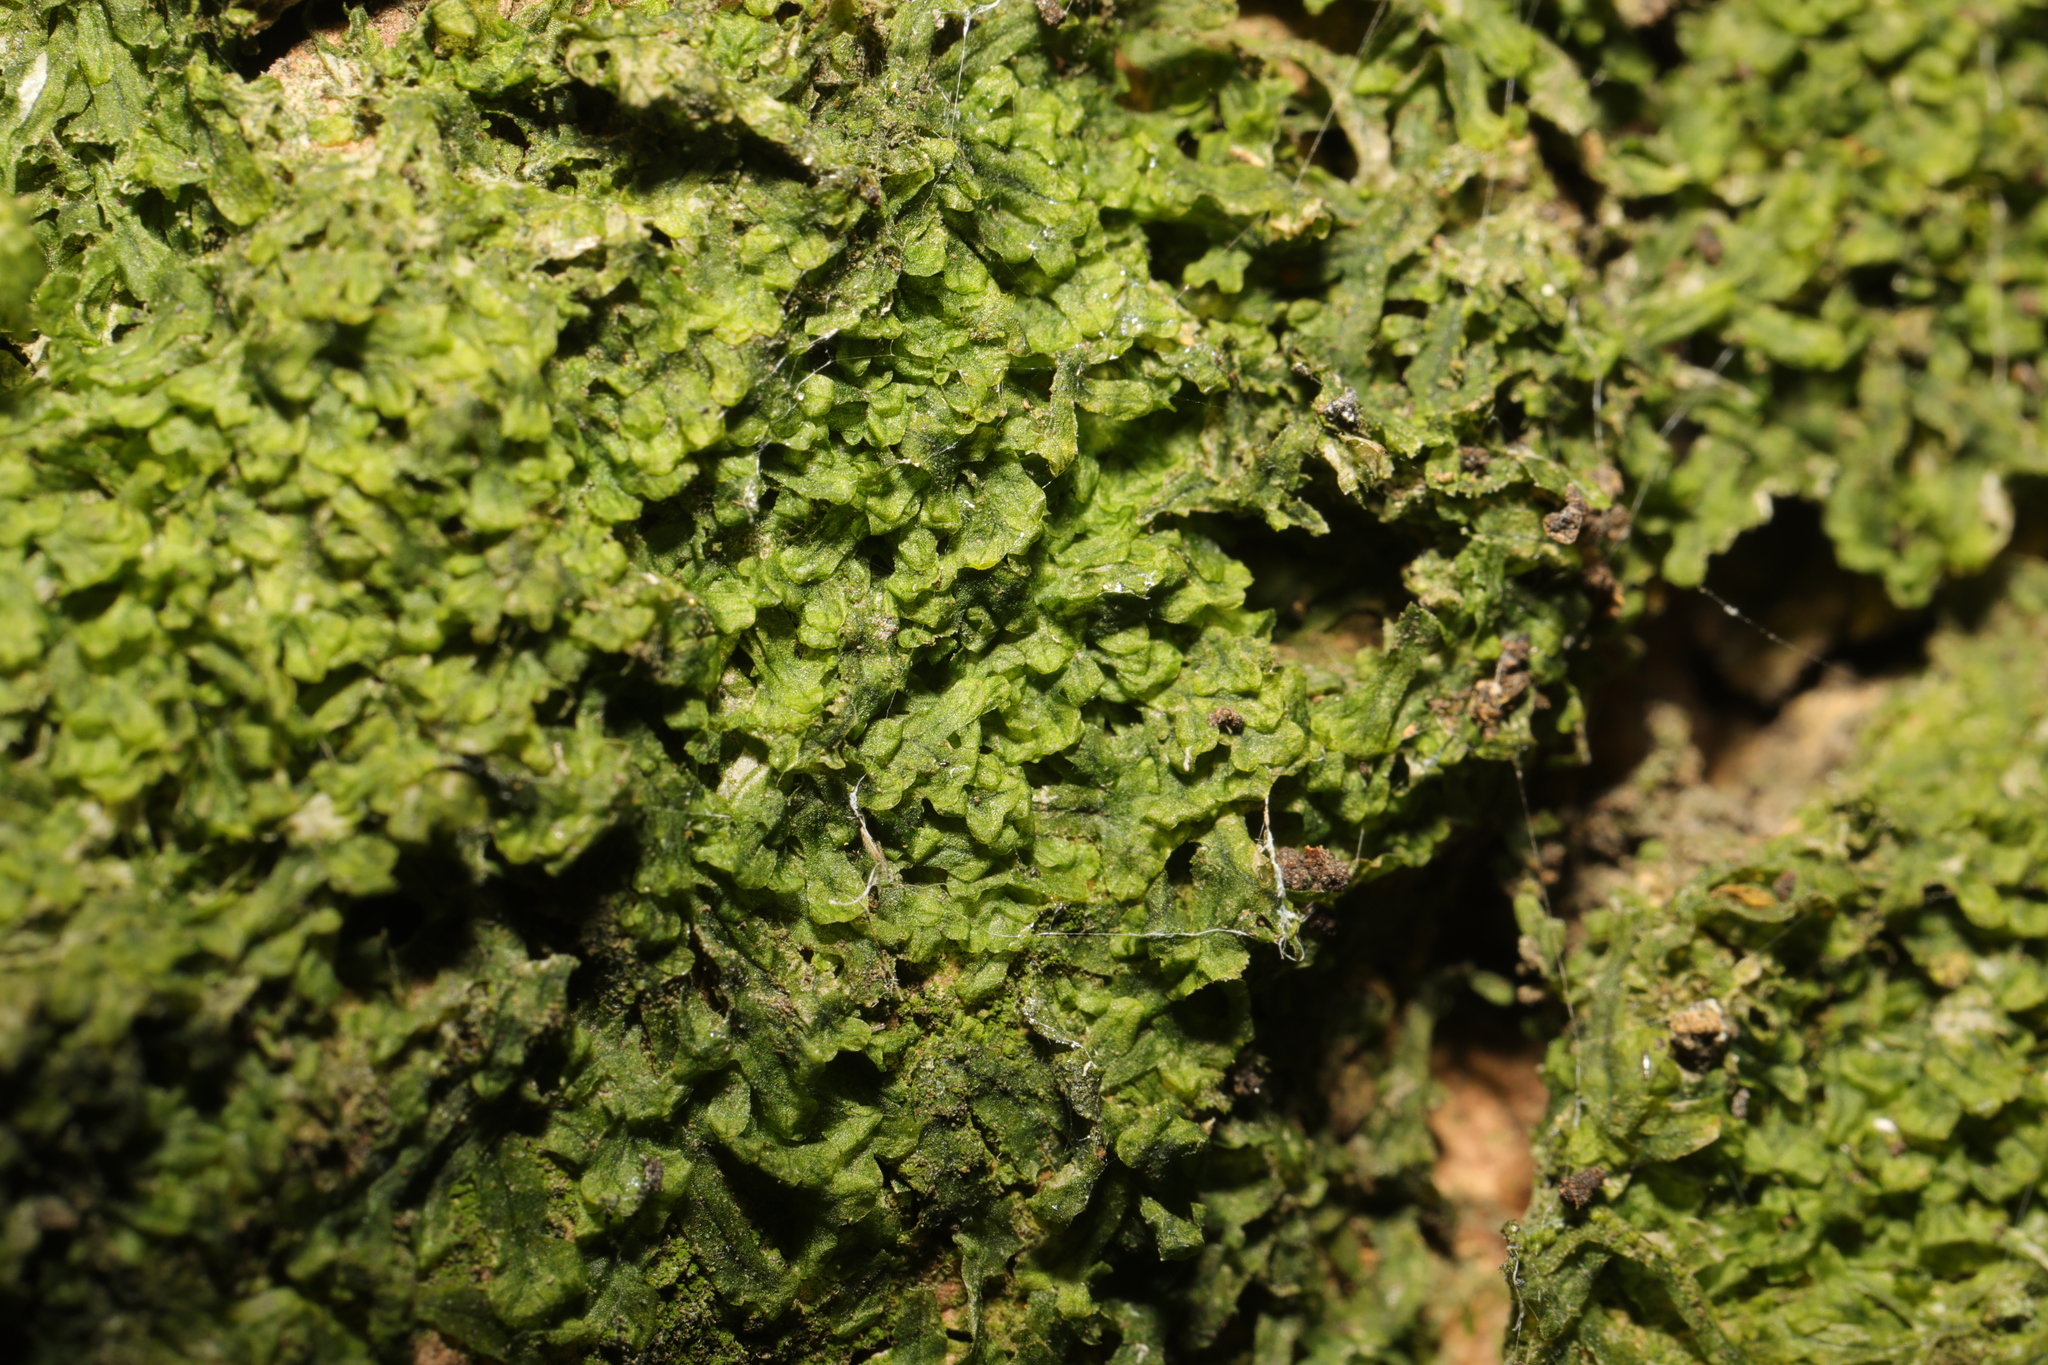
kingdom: Plantae
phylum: Marchantiophyta
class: Jungermanniopsida
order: Metzgeriales
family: Metzgeriaceae
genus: Metzgeria
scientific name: Metzgeria furcata
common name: Forked veilwort
